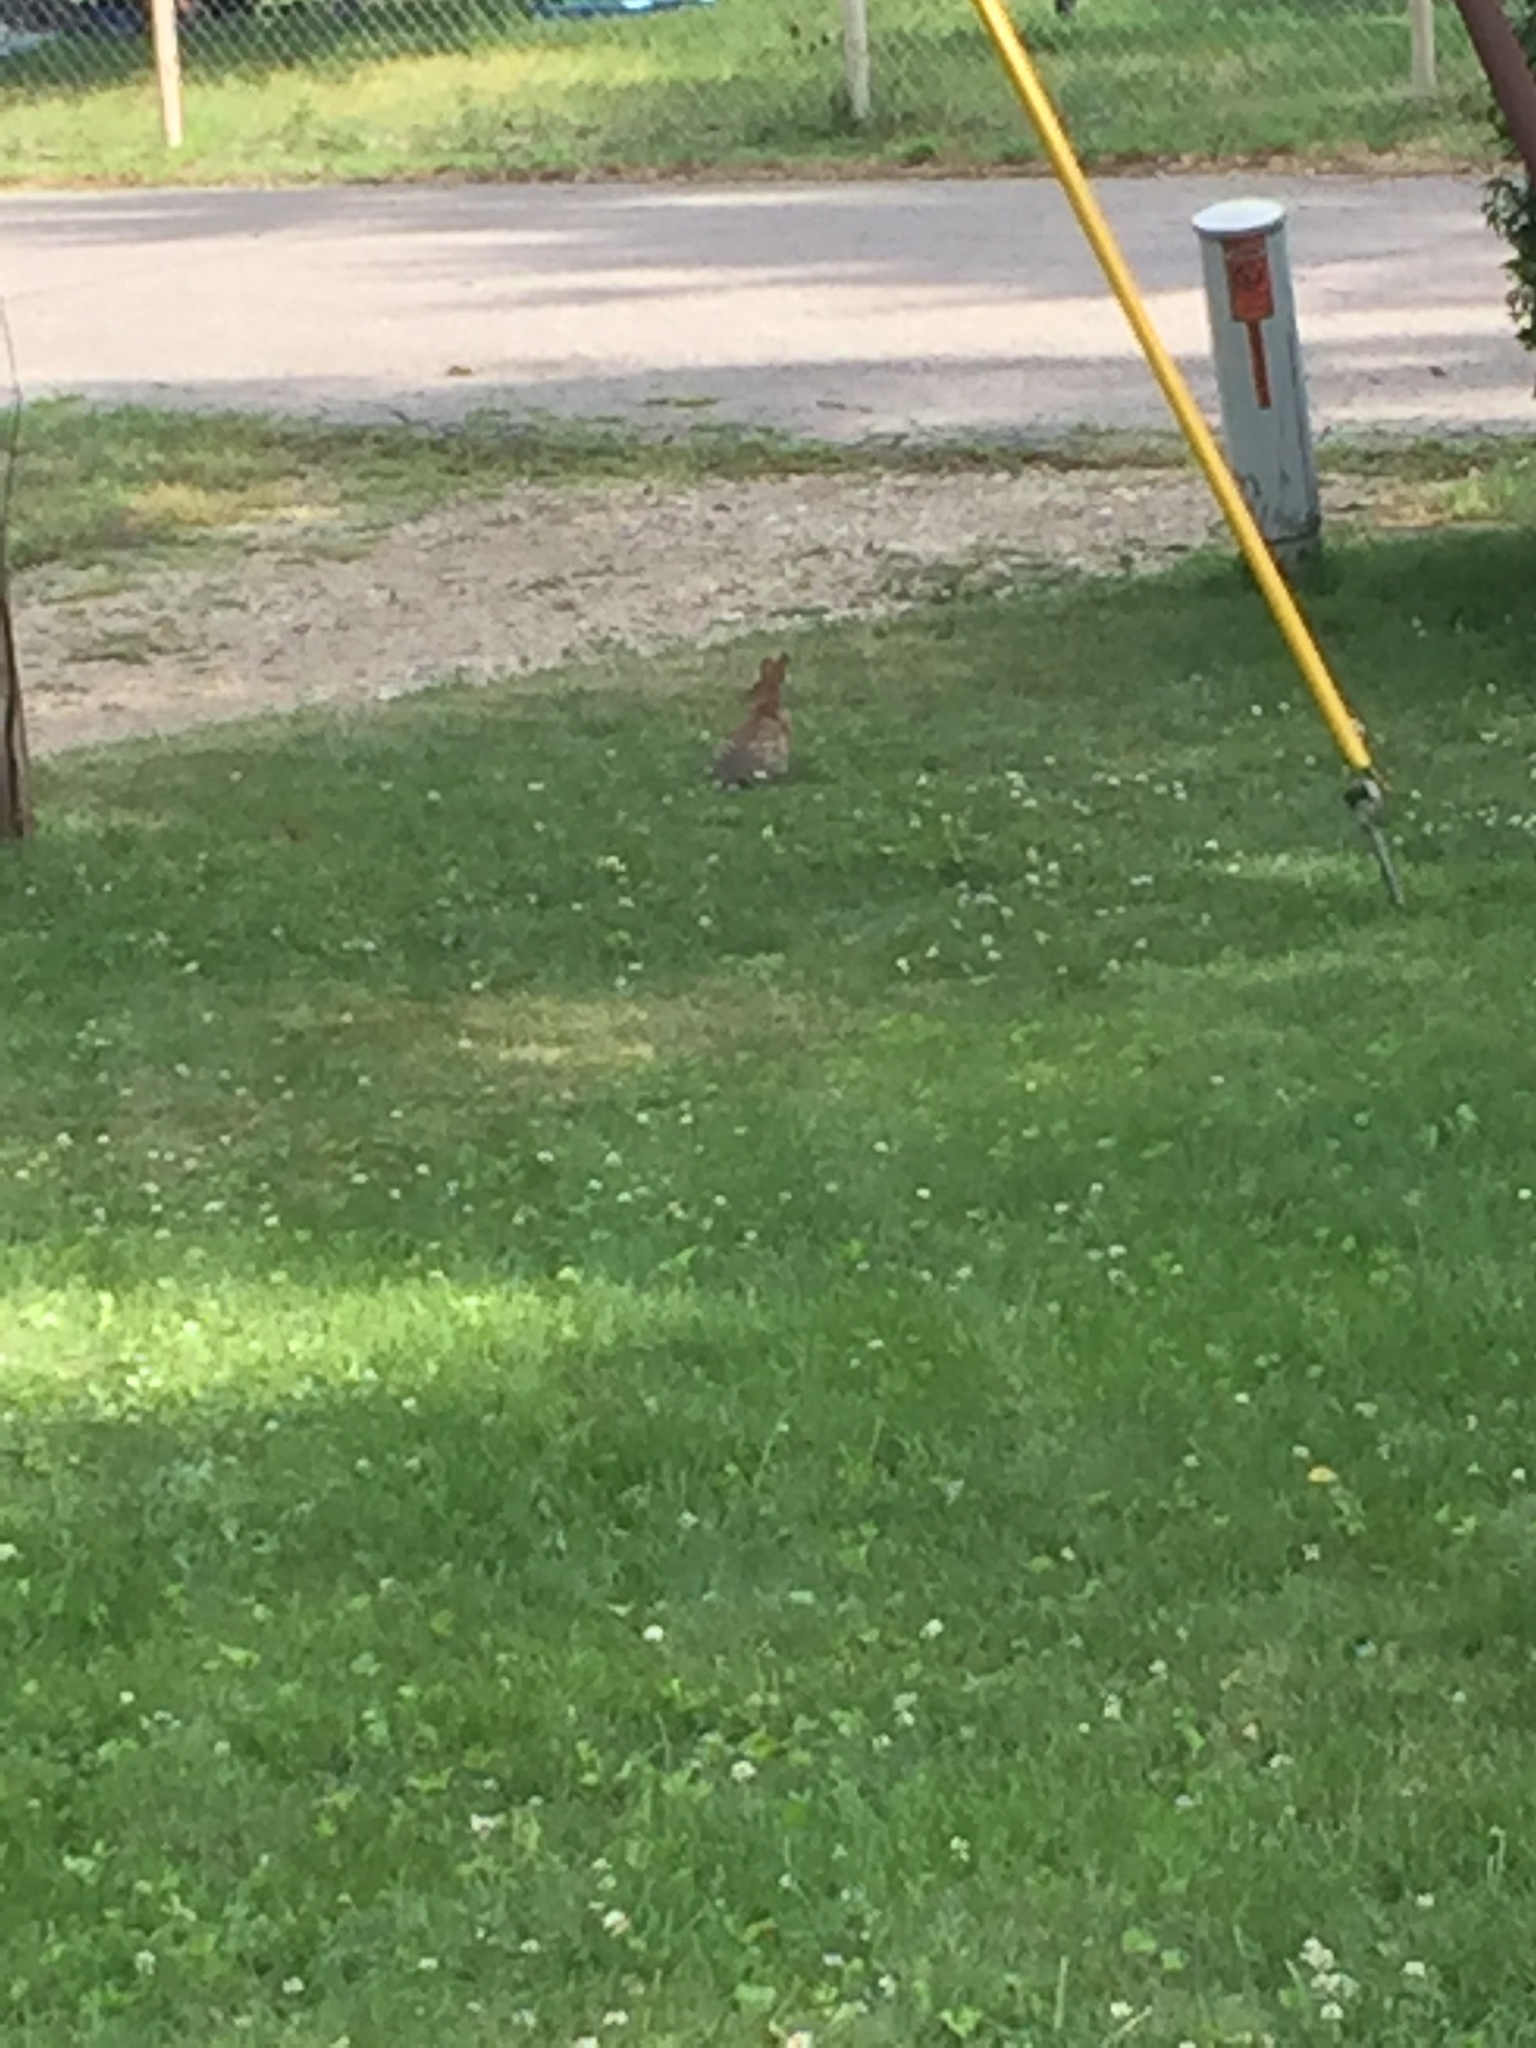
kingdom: Animalia
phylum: Chordata
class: Mammalia
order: Lagomorpha
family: Leporidae
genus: Sylvilagus
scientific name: Sylvilagus floridanus
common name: Eastern cottontail
